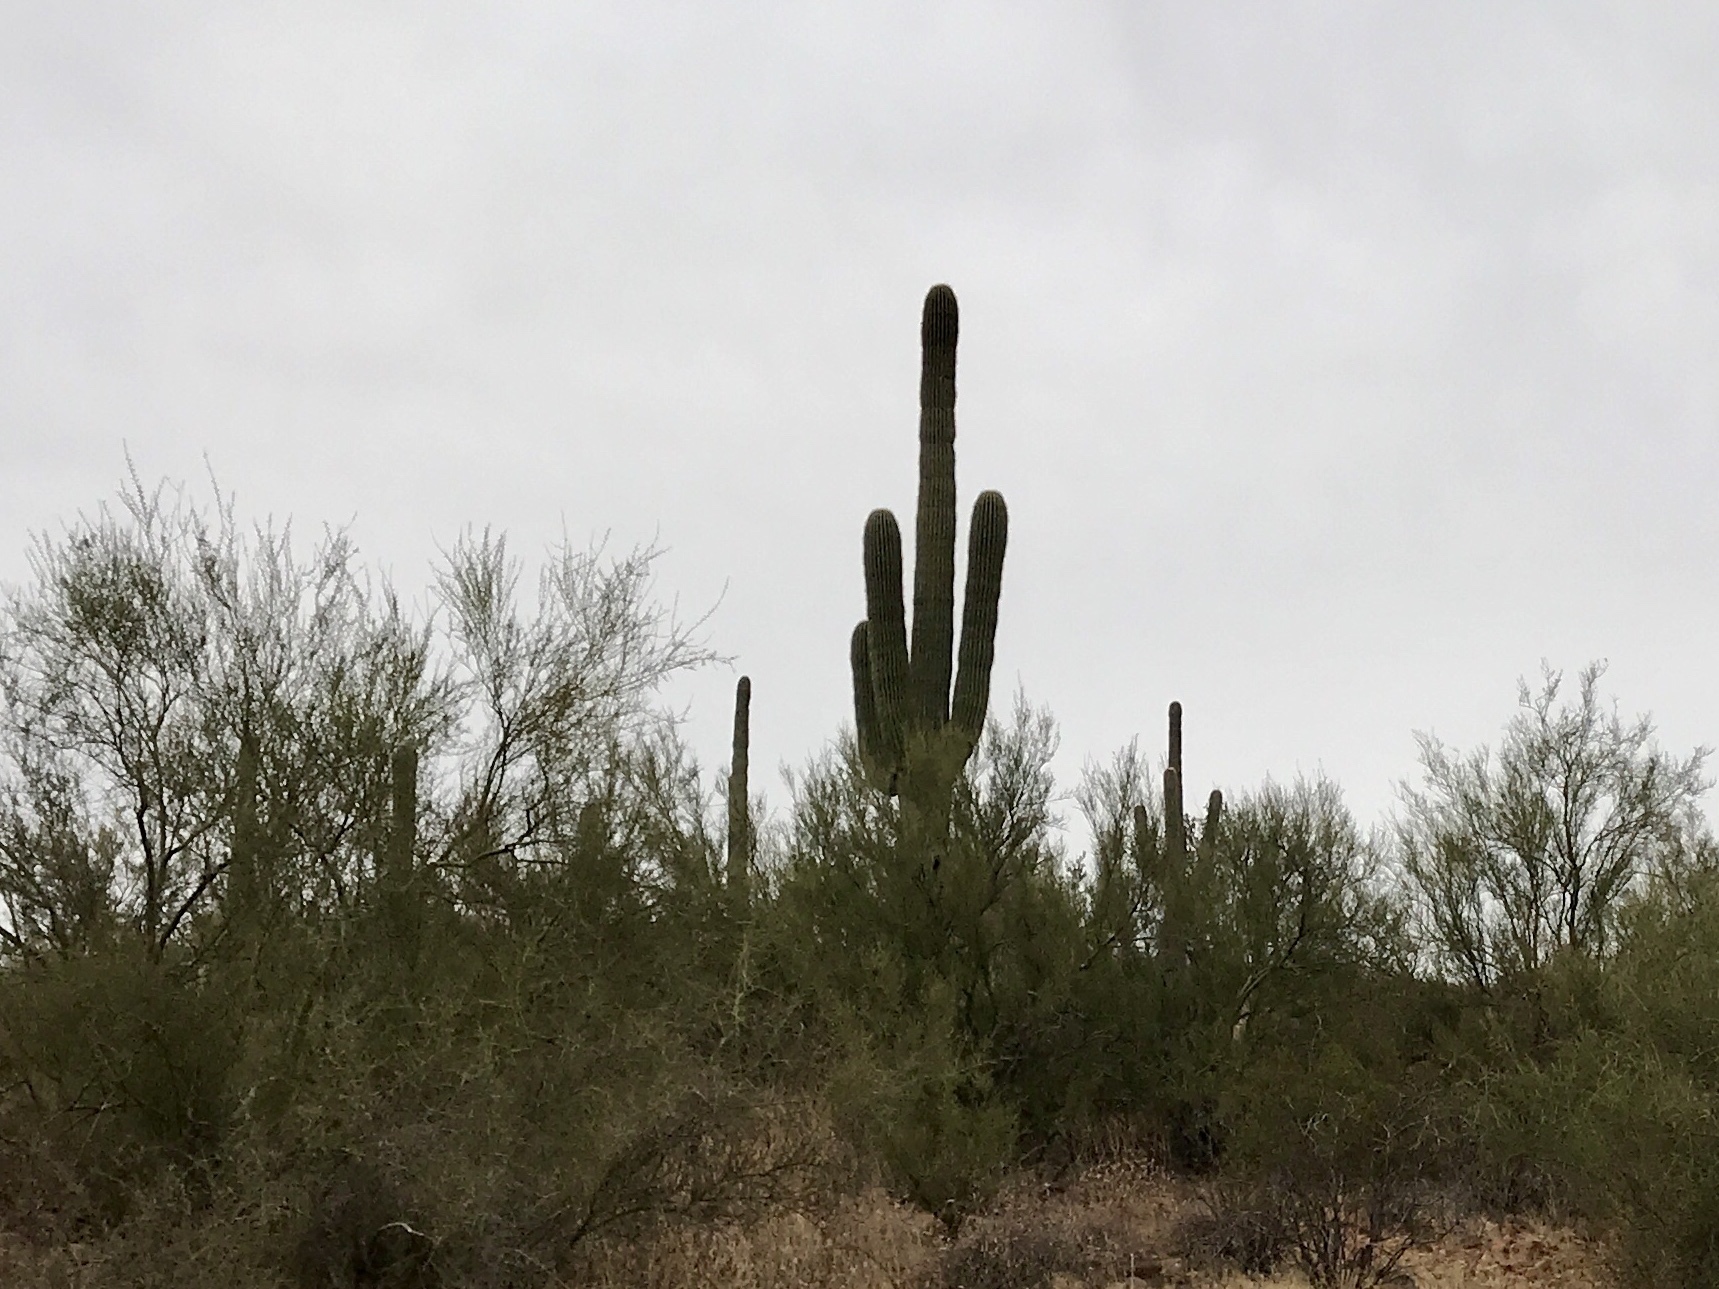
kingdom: Plantae
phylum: Tracheophyta
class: Magnoliopsida
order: Caryophyllales
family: Cactaceae
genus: Carnegiea
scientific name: Carnegiea gigantea
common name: Saguaro
